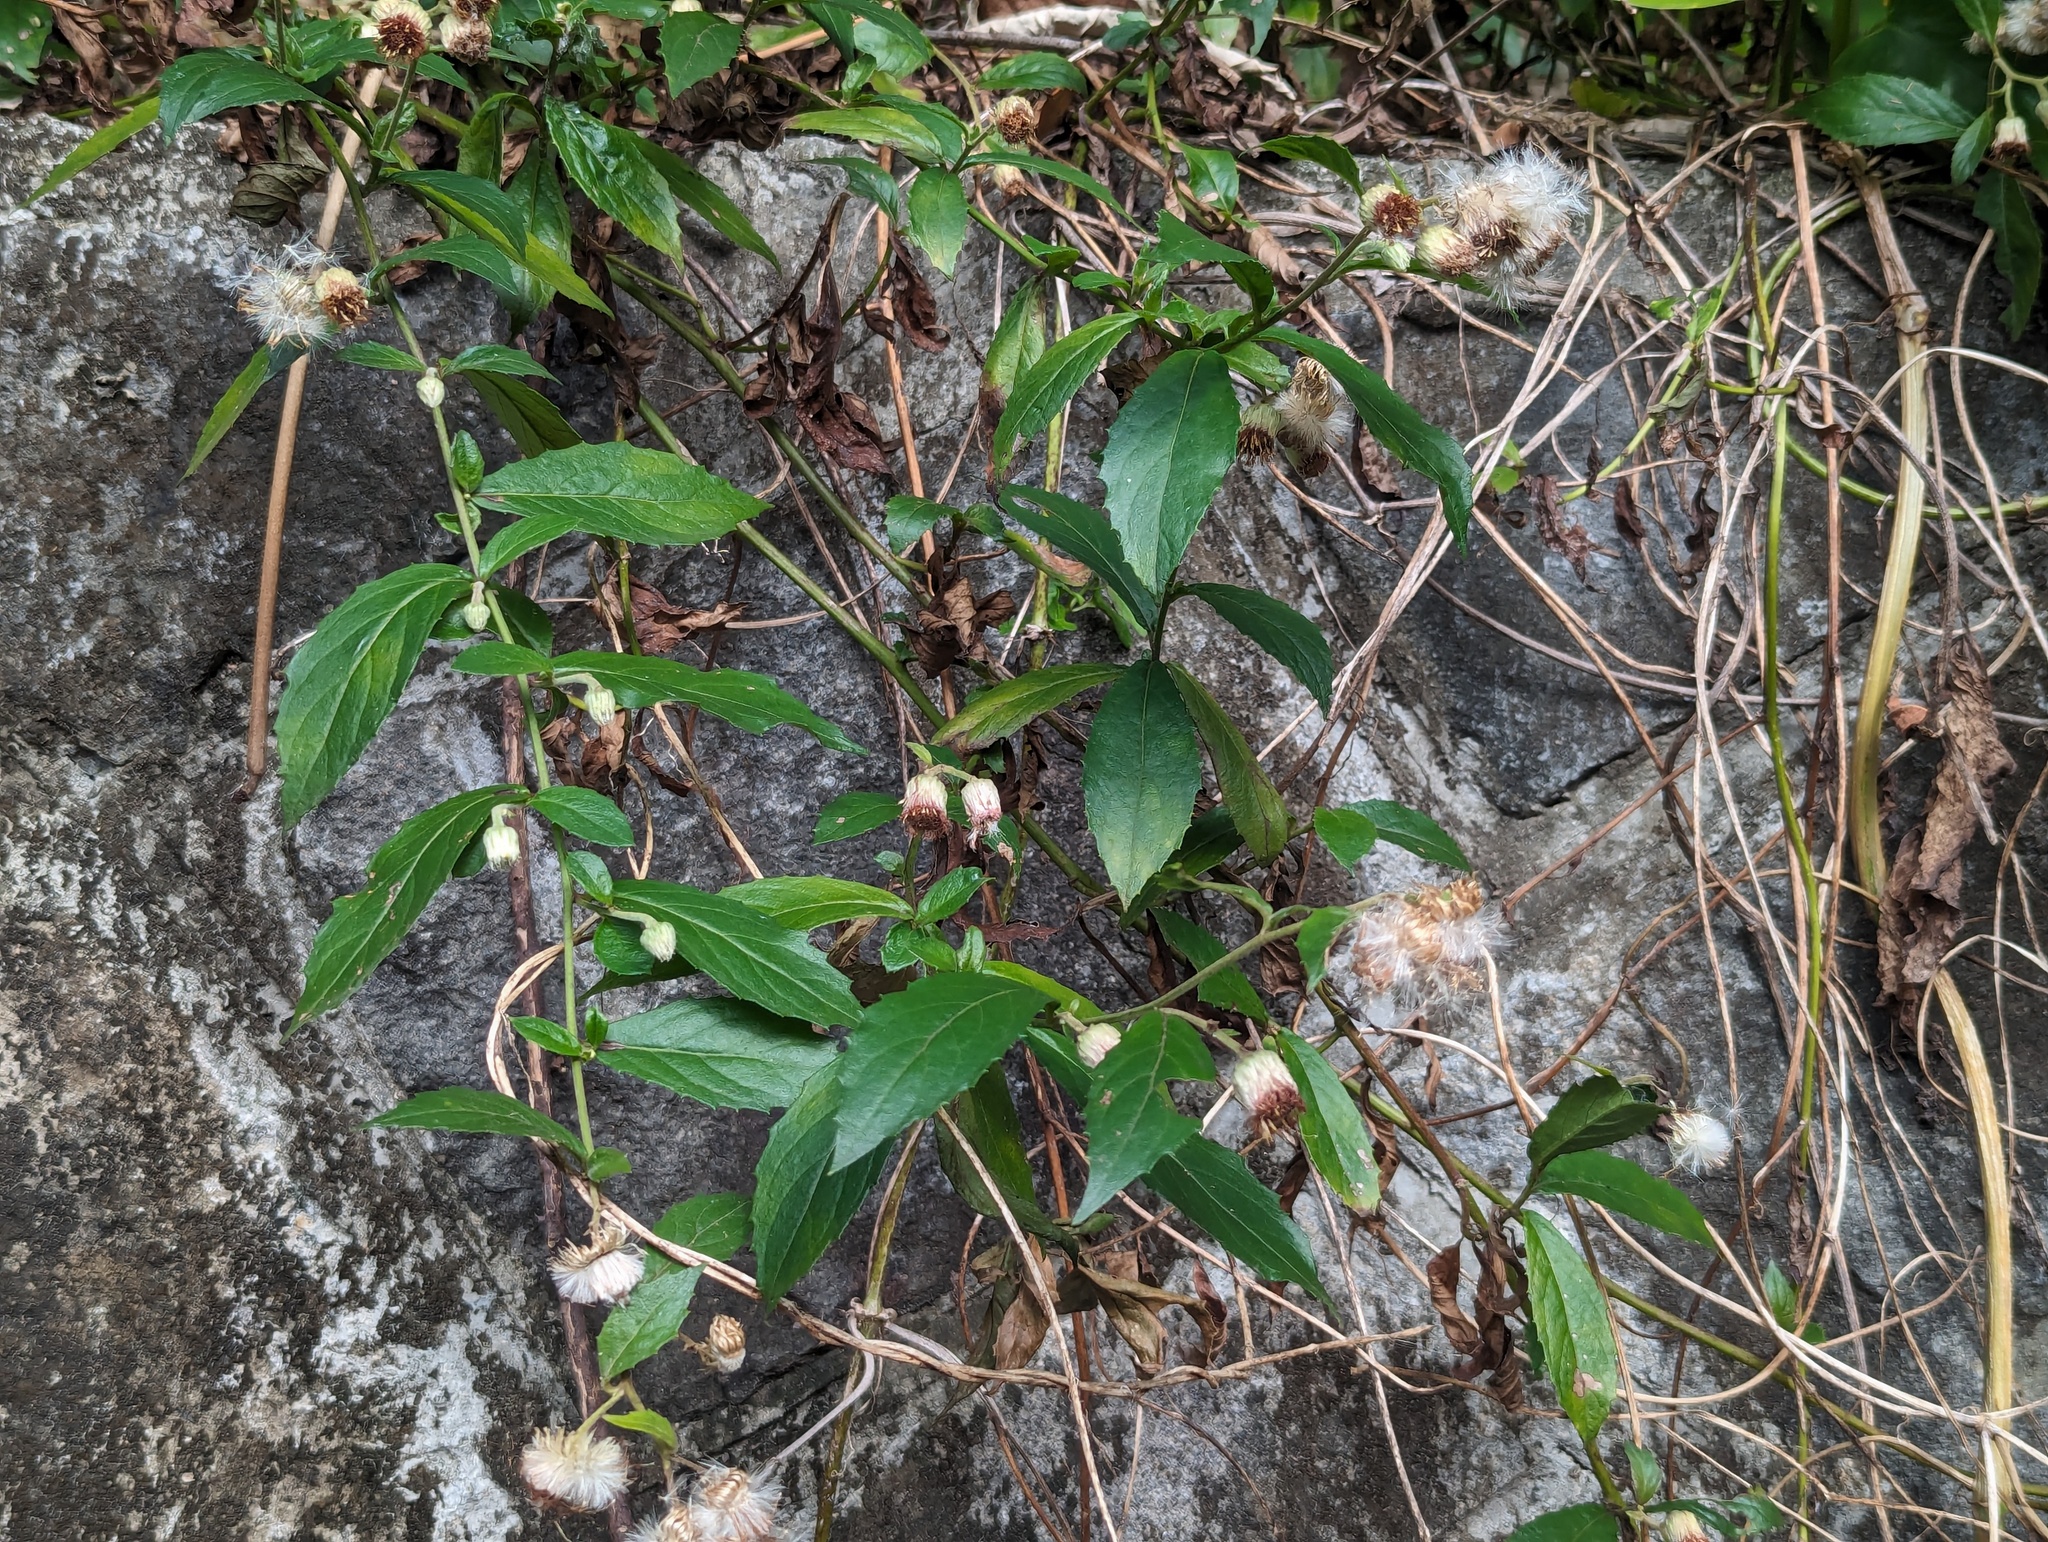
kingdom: Plantae
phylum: Tracheophyta
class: Magnoliopsida
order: Asterales
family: Asteraceae
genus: Blumea
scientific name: Blumea megacephala
